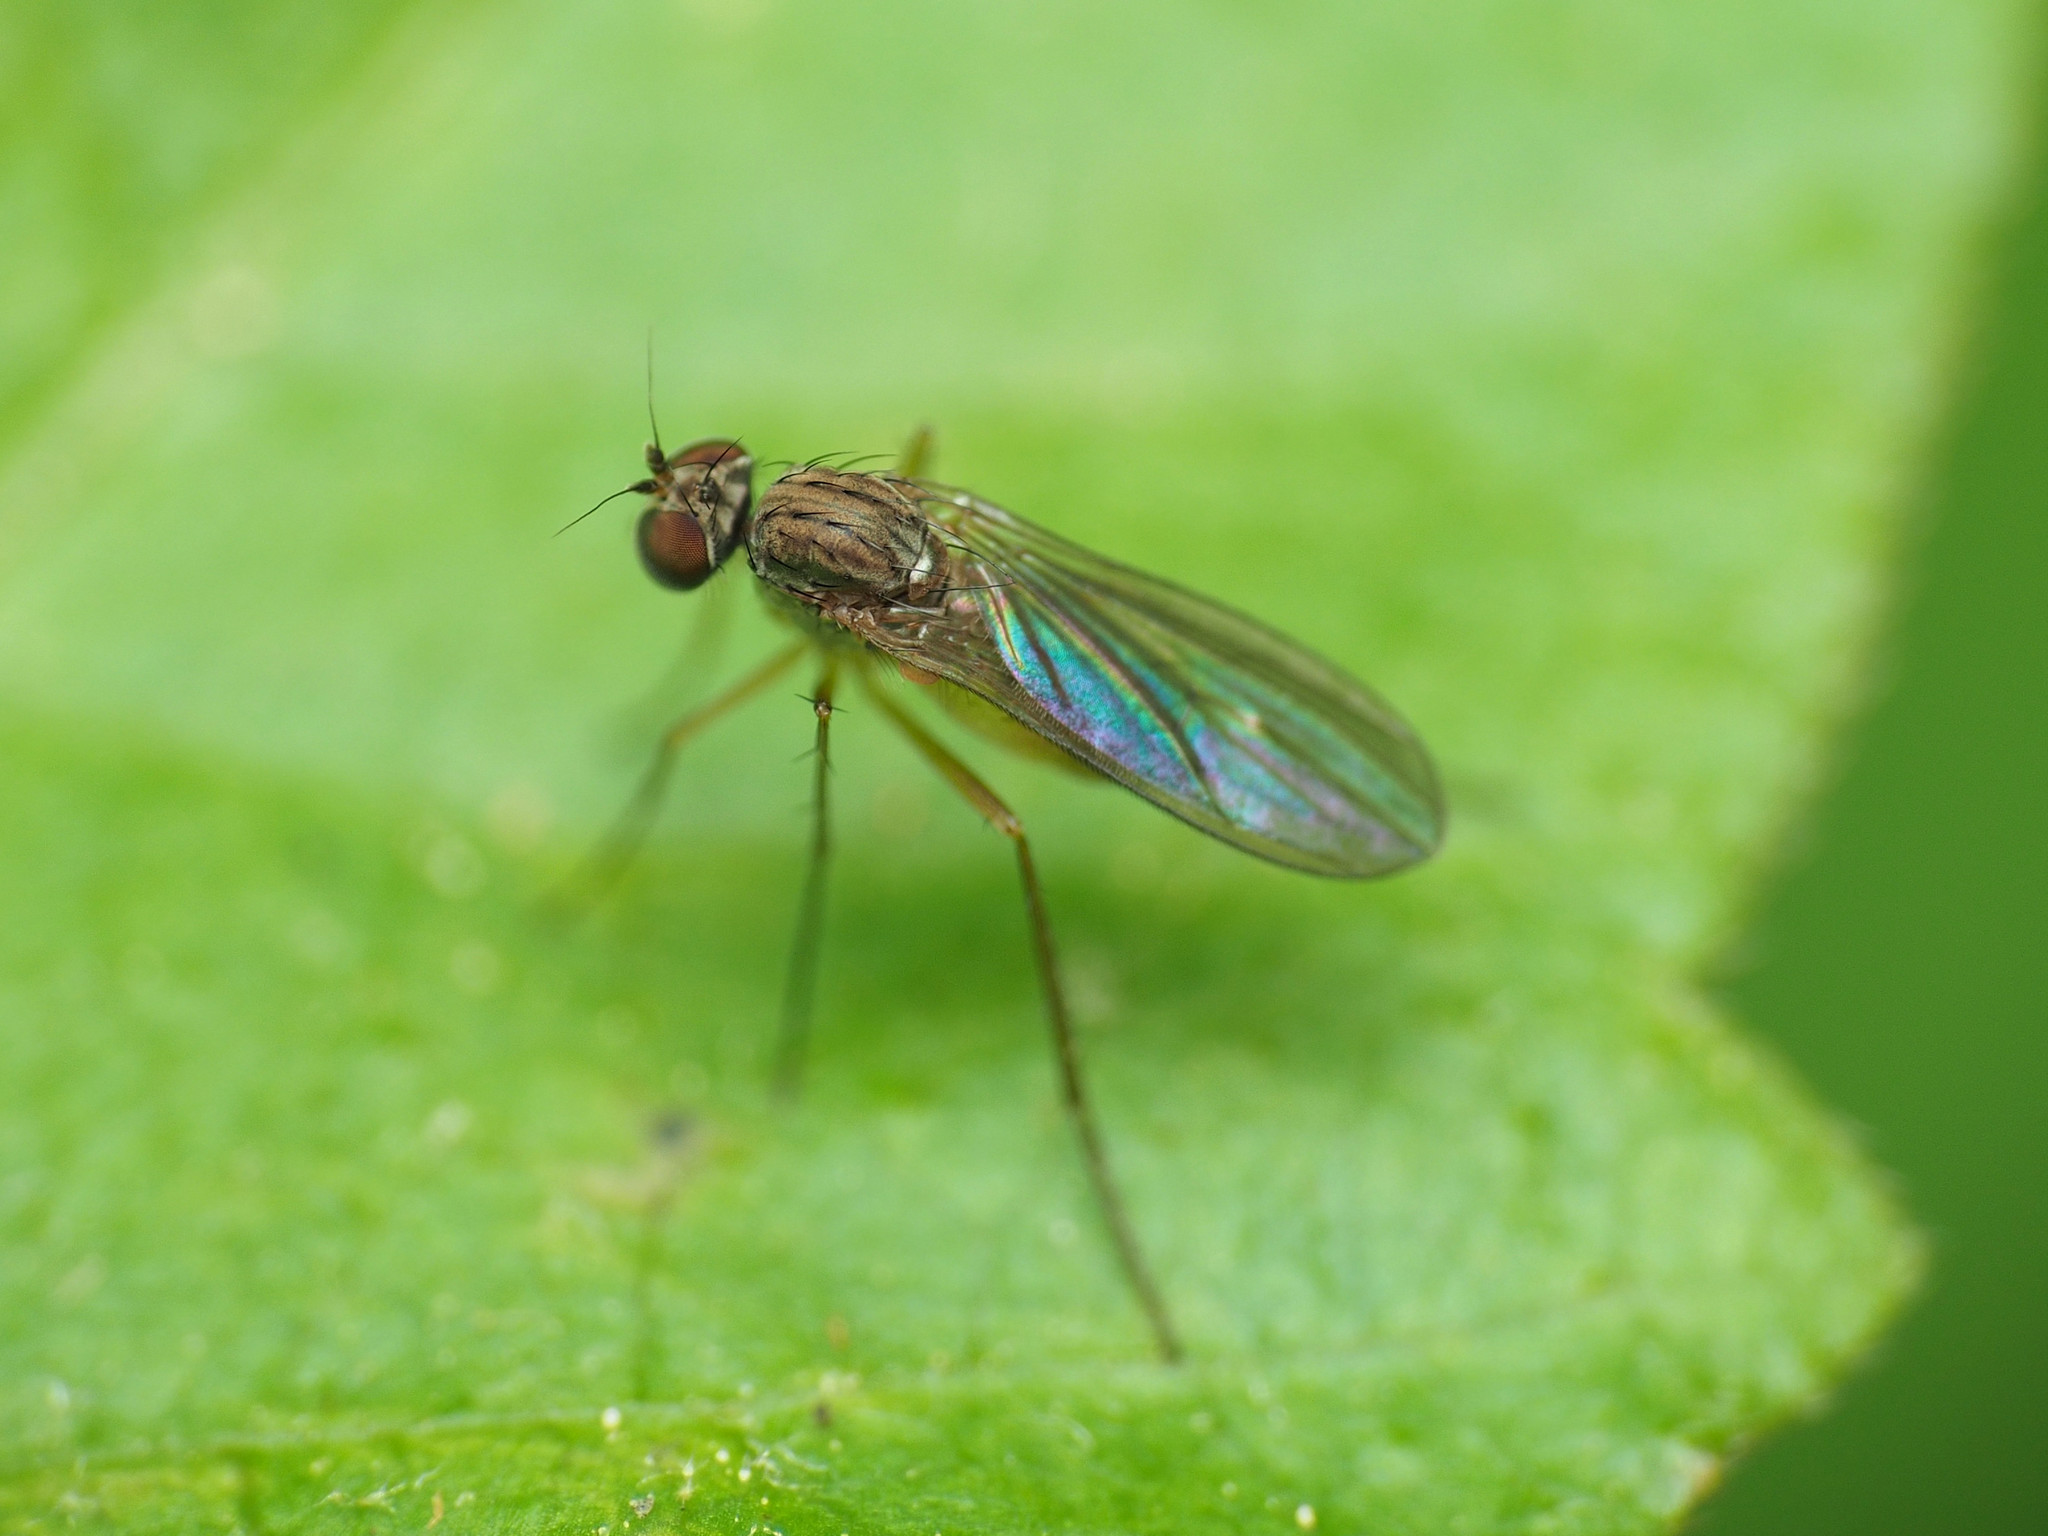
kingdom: Animalia
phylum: Arthropoda
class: Insecta
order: Diptera
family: Dolichopodidae
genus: Sympycnus
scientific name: Sympycnus lineatus
